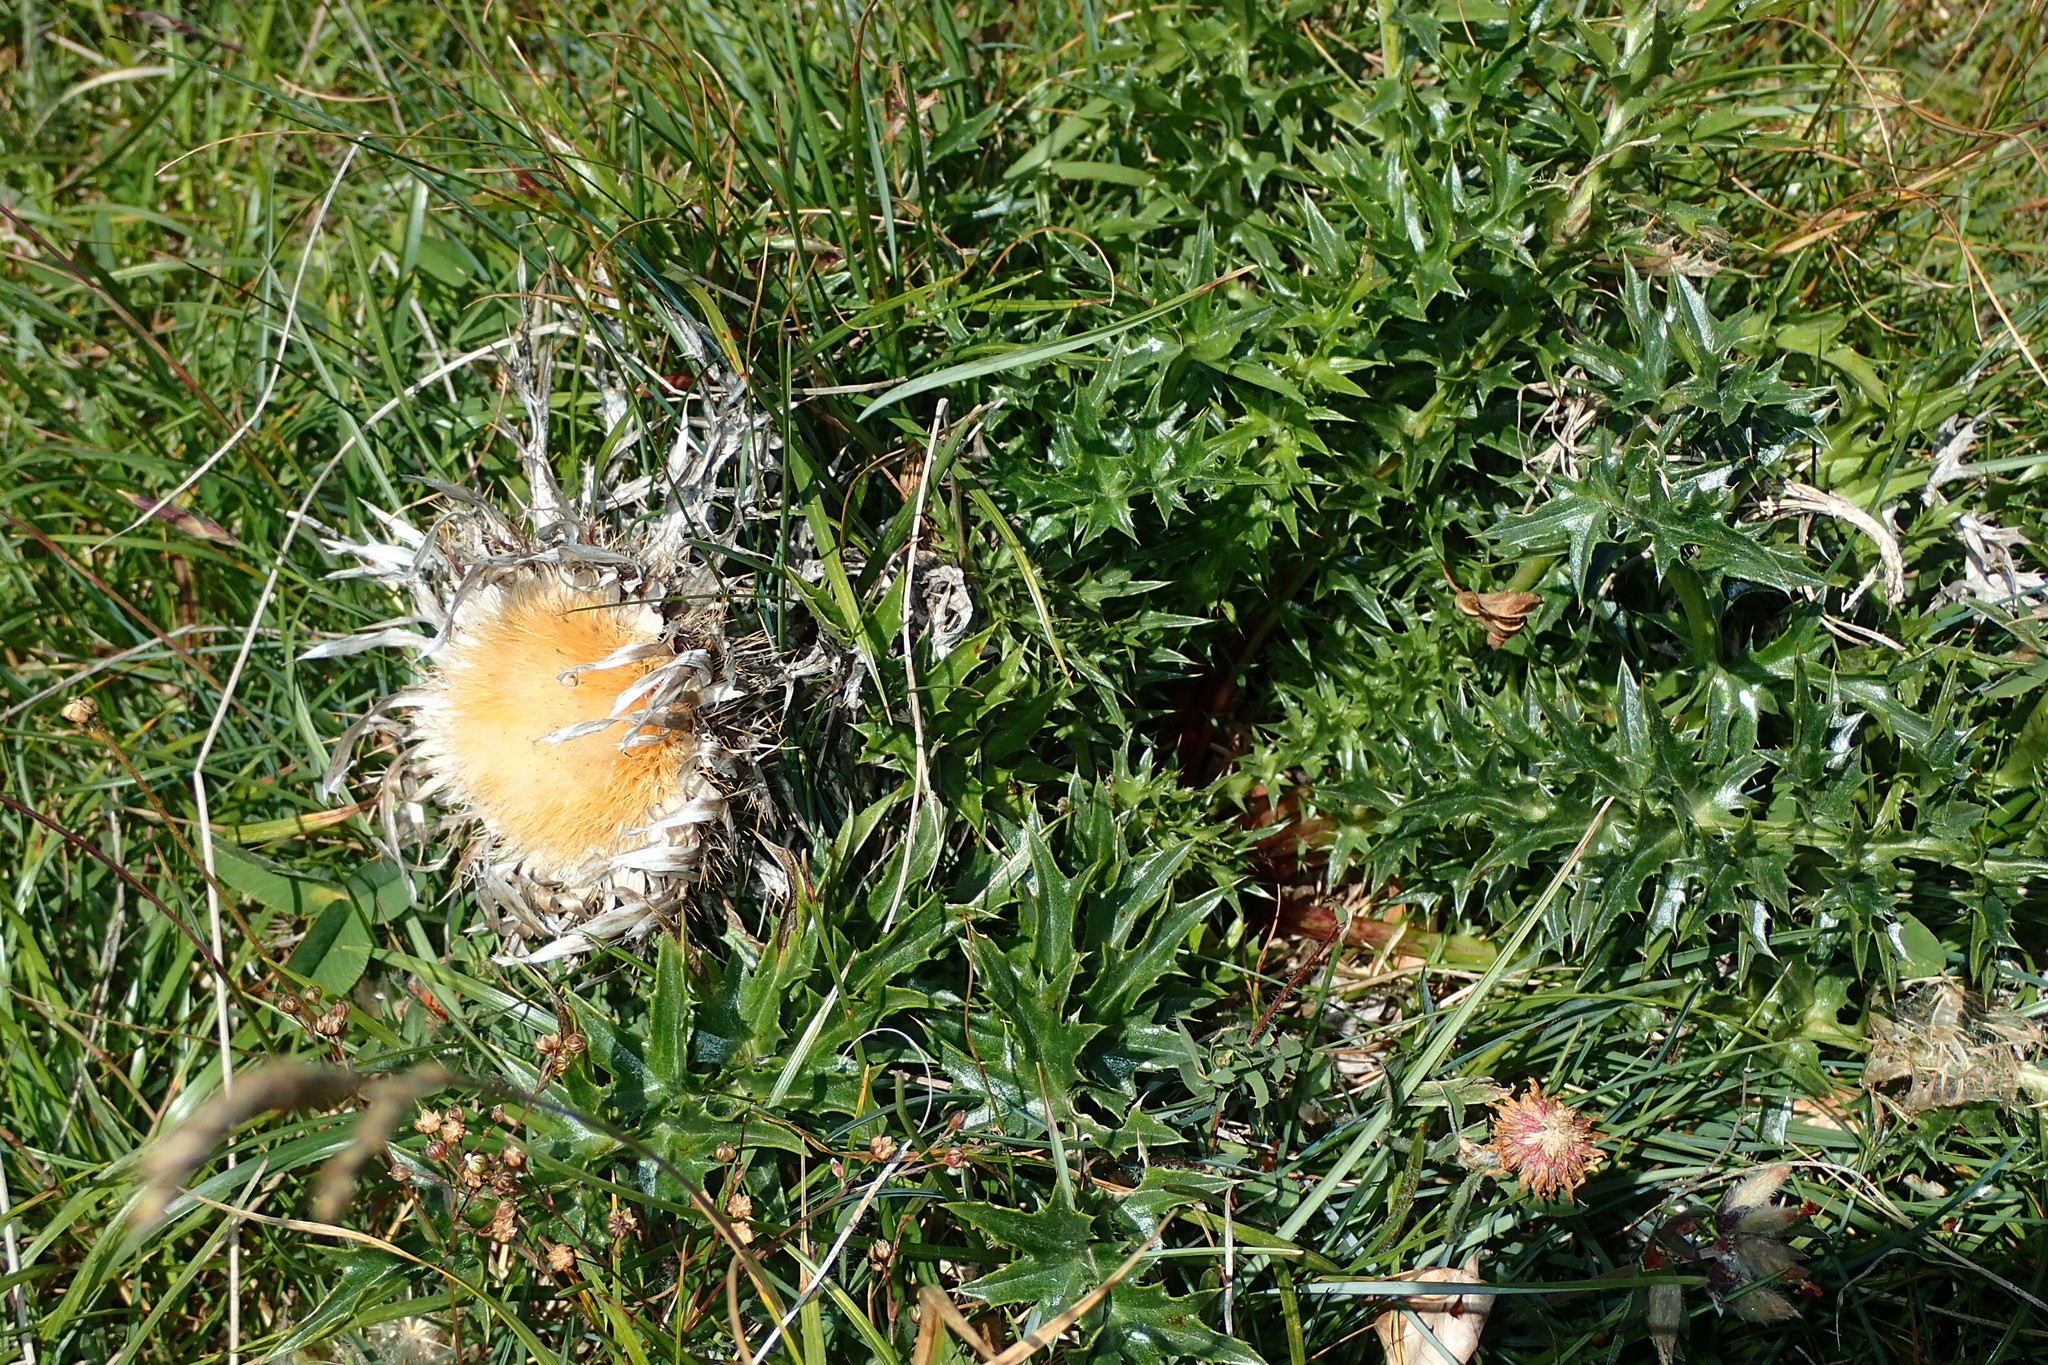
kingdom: Plantae
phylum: Tracheophyta
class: Magnoliopsida
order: Asterales
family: Asteraceae
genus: Carlina
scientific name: Carlina acaulis
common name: Stemless carline thistle
